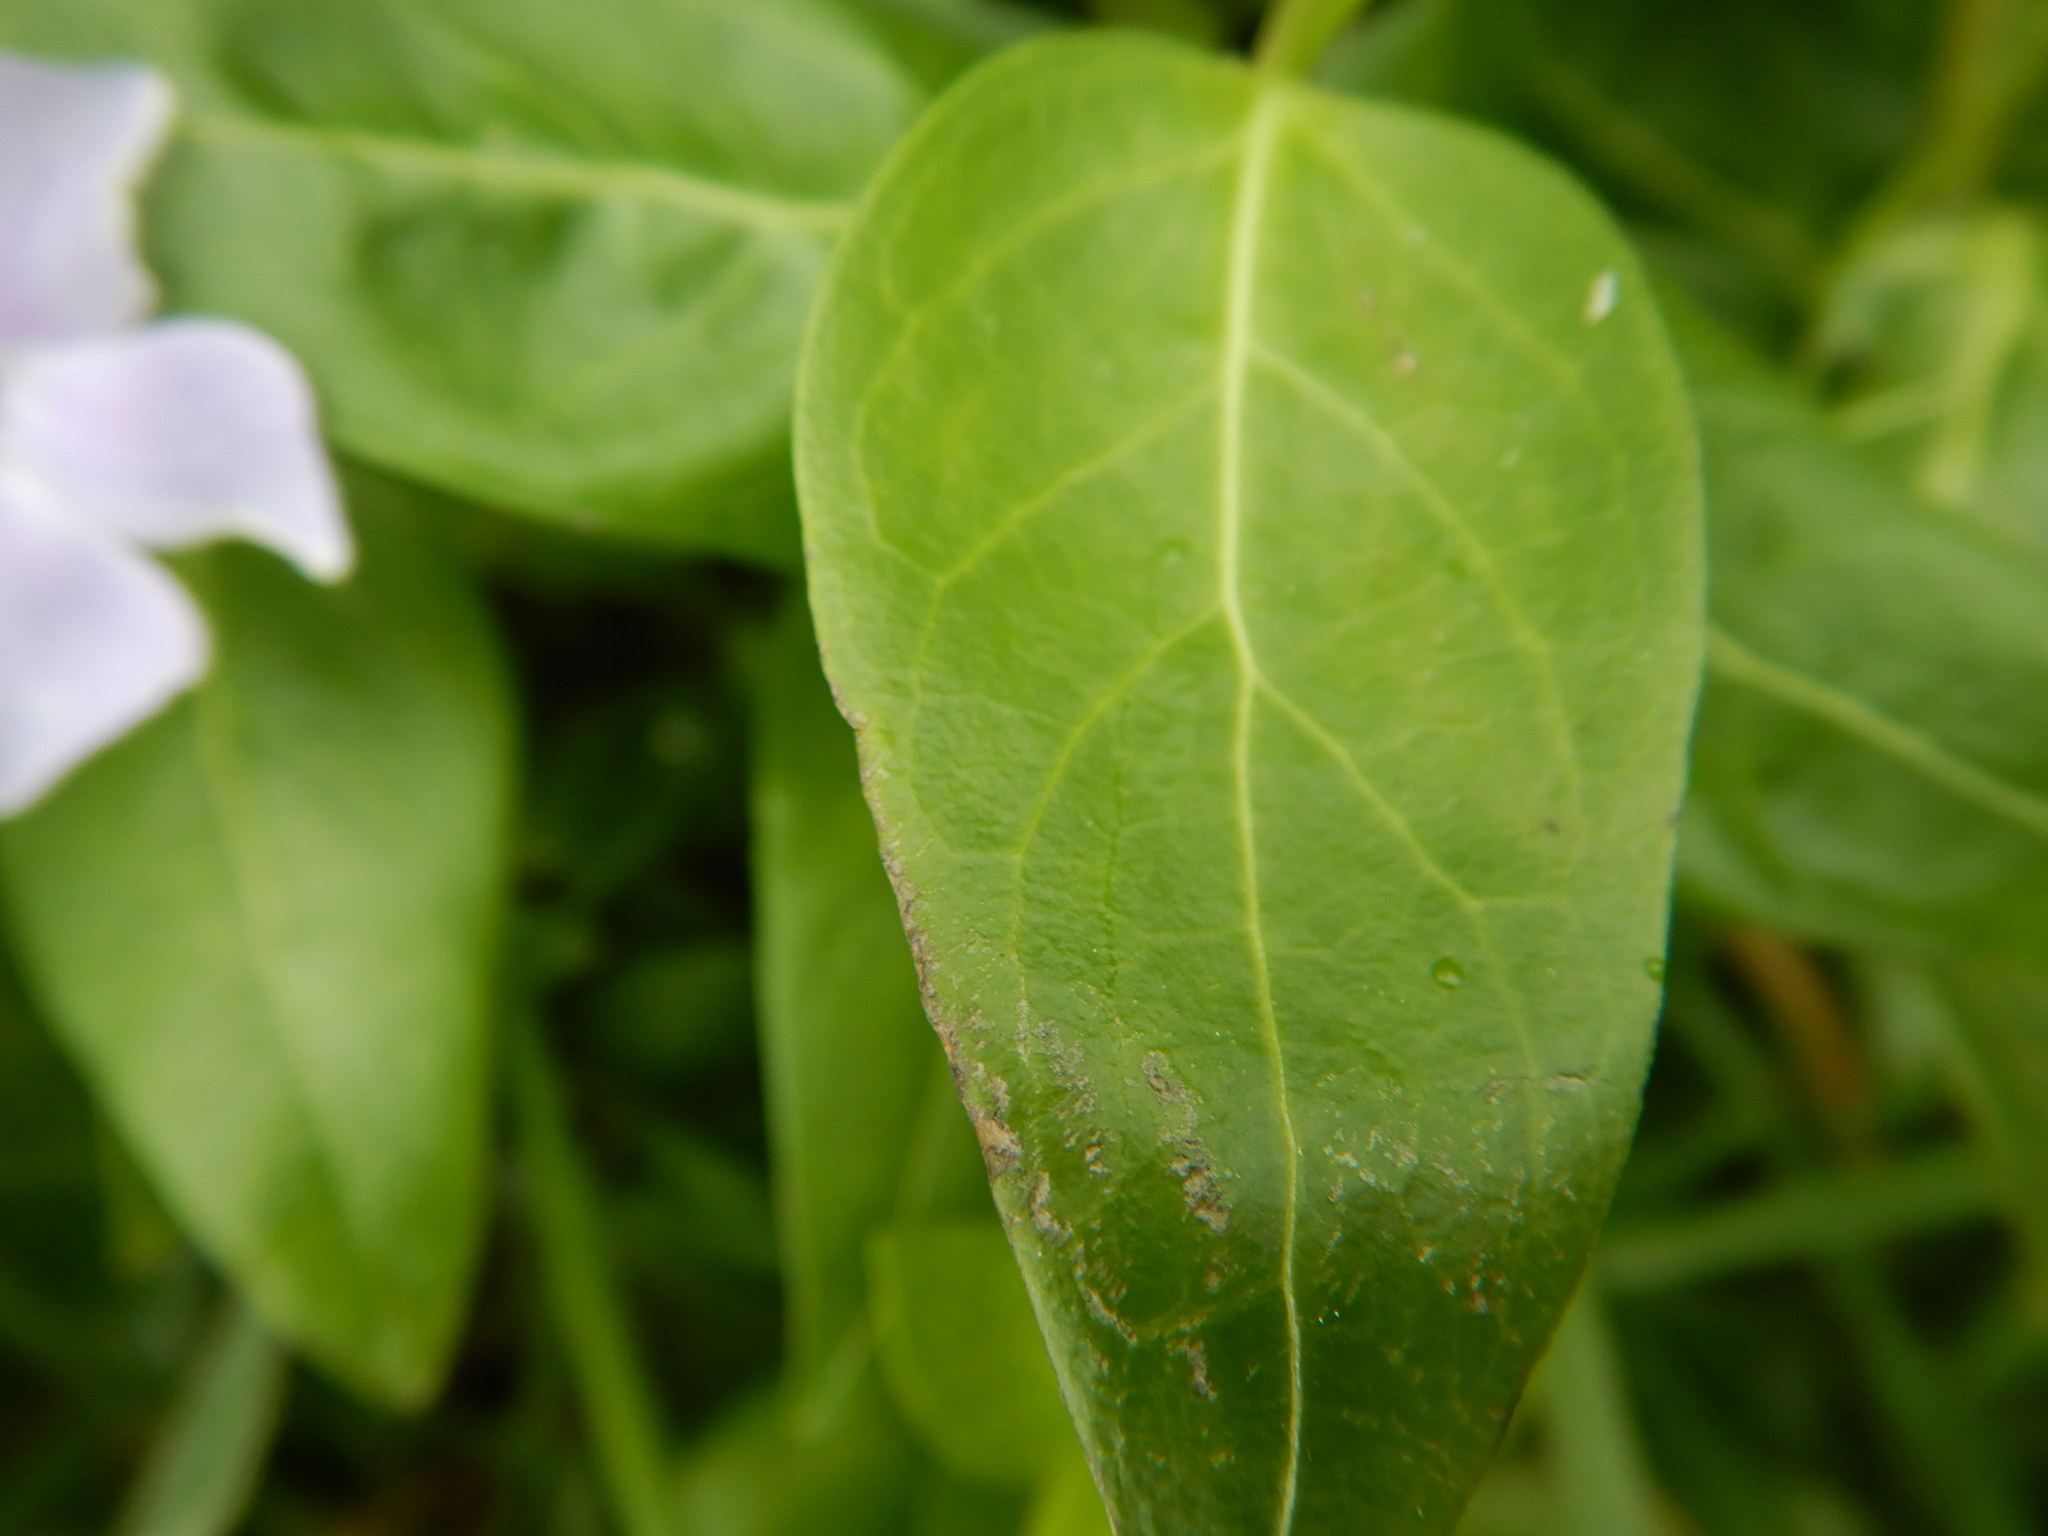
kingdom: Plantae
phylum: Tracheophyta
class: Magnoliopsida
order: Gentianales
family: Apocynaceae
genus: Vinca
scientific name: Vinca difformis
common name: Intermediate periwinkle
